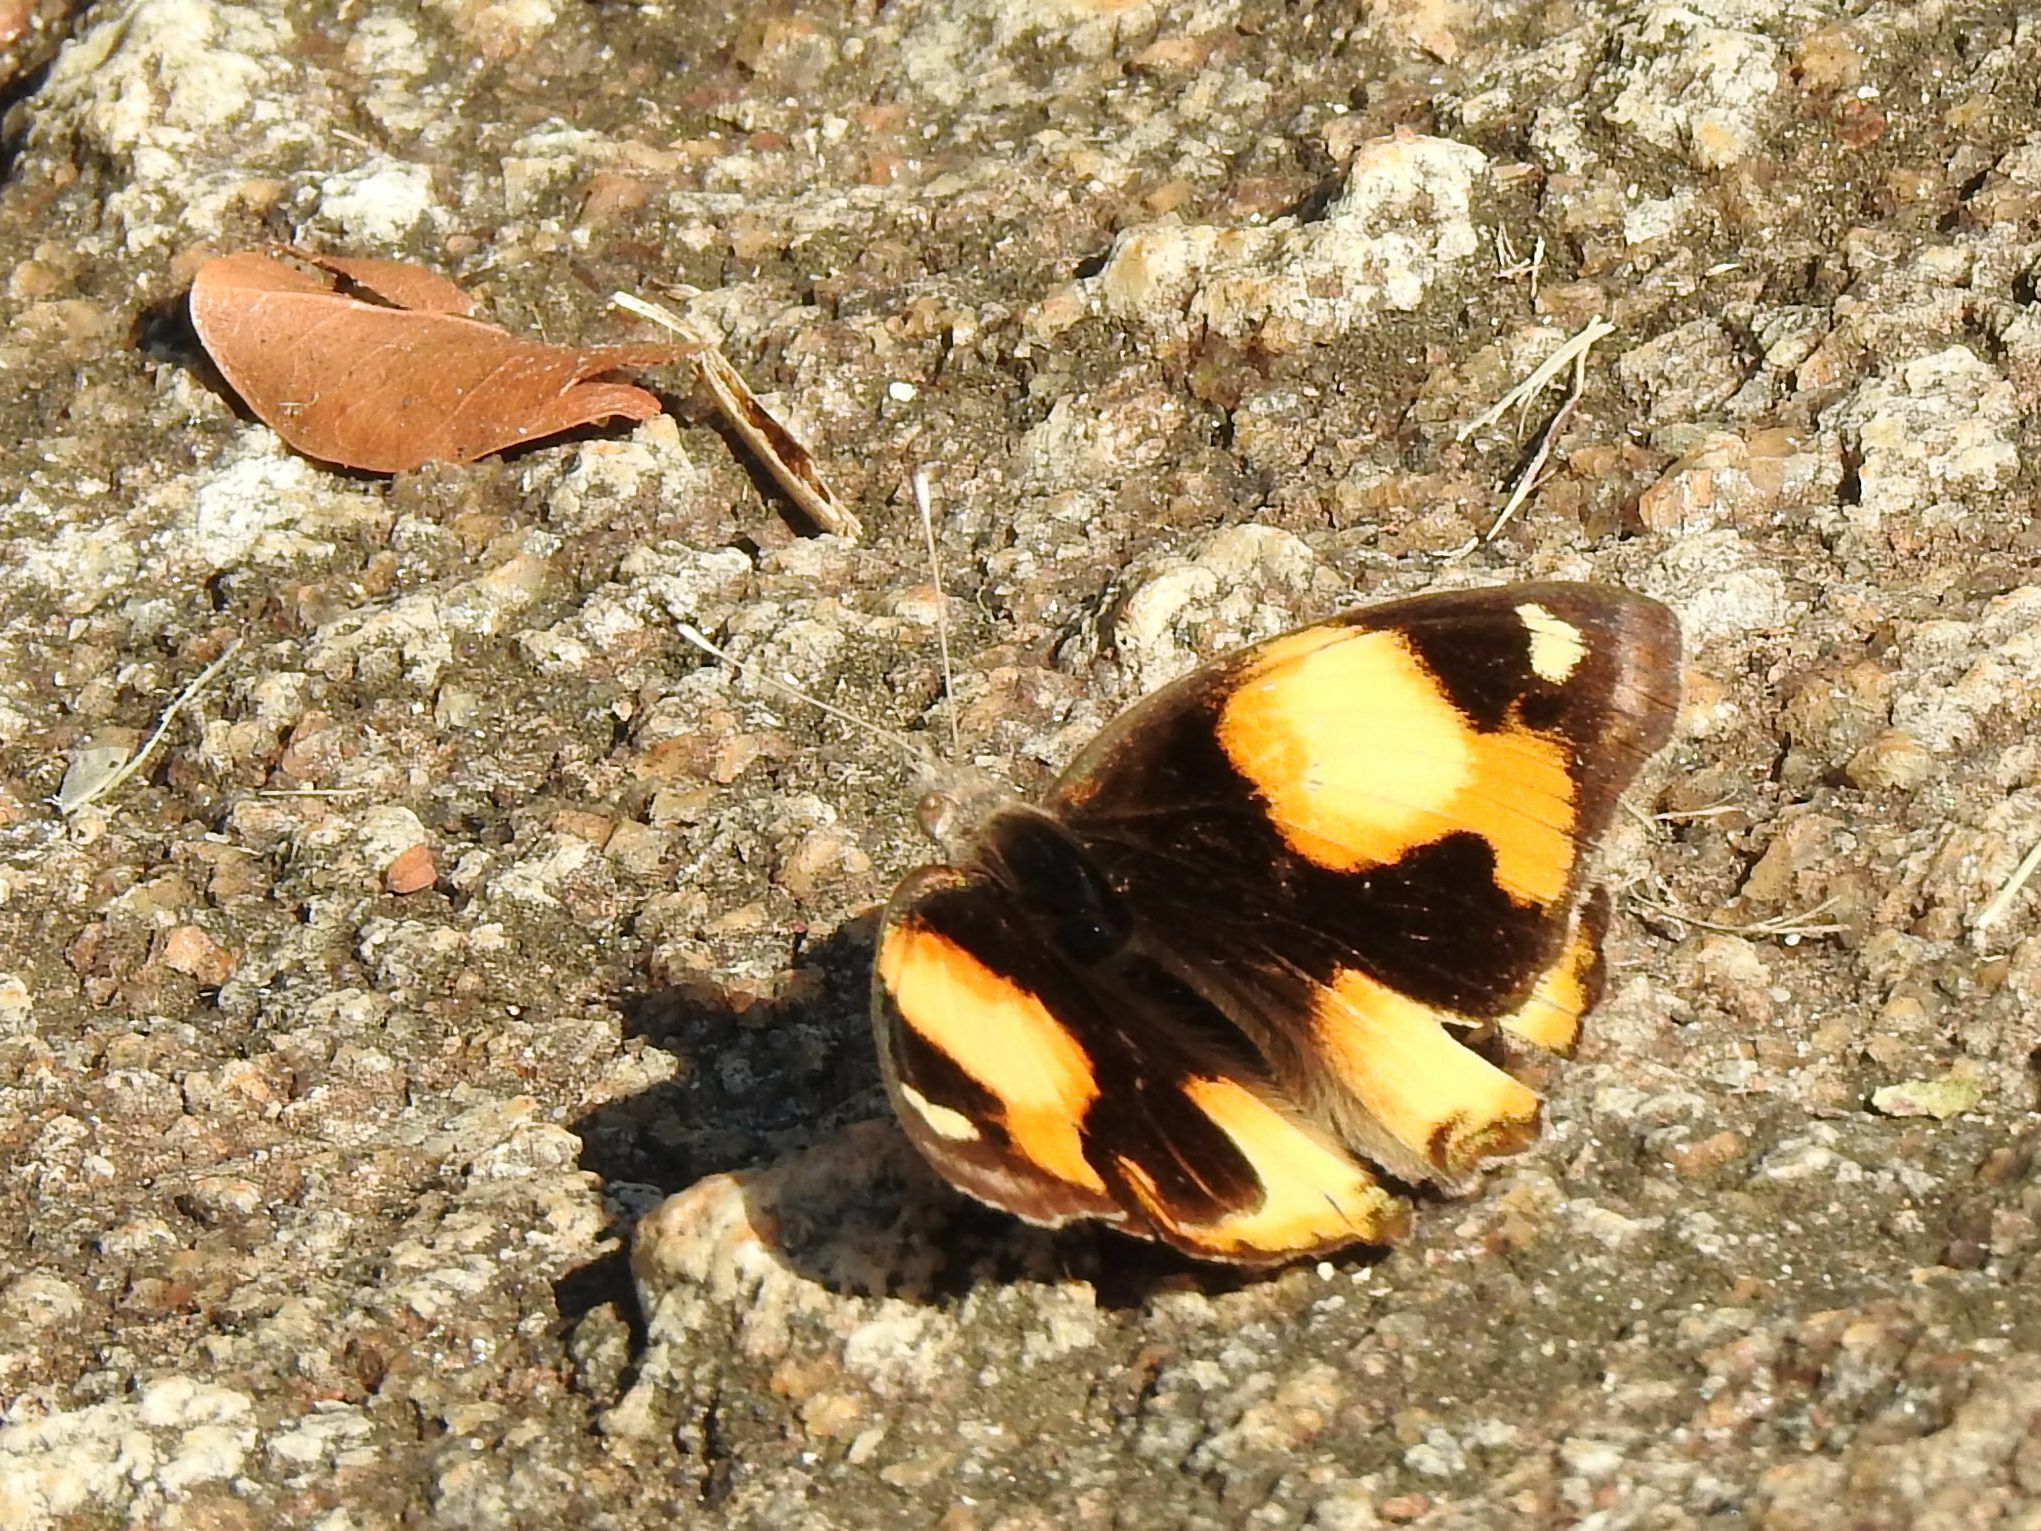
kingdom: Animalia
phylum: Arthropoda
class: Insecta
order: Lepidoptera
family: Nymphalidae
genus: Junonia
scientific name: Junonia hierta
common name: Yellow pansy
